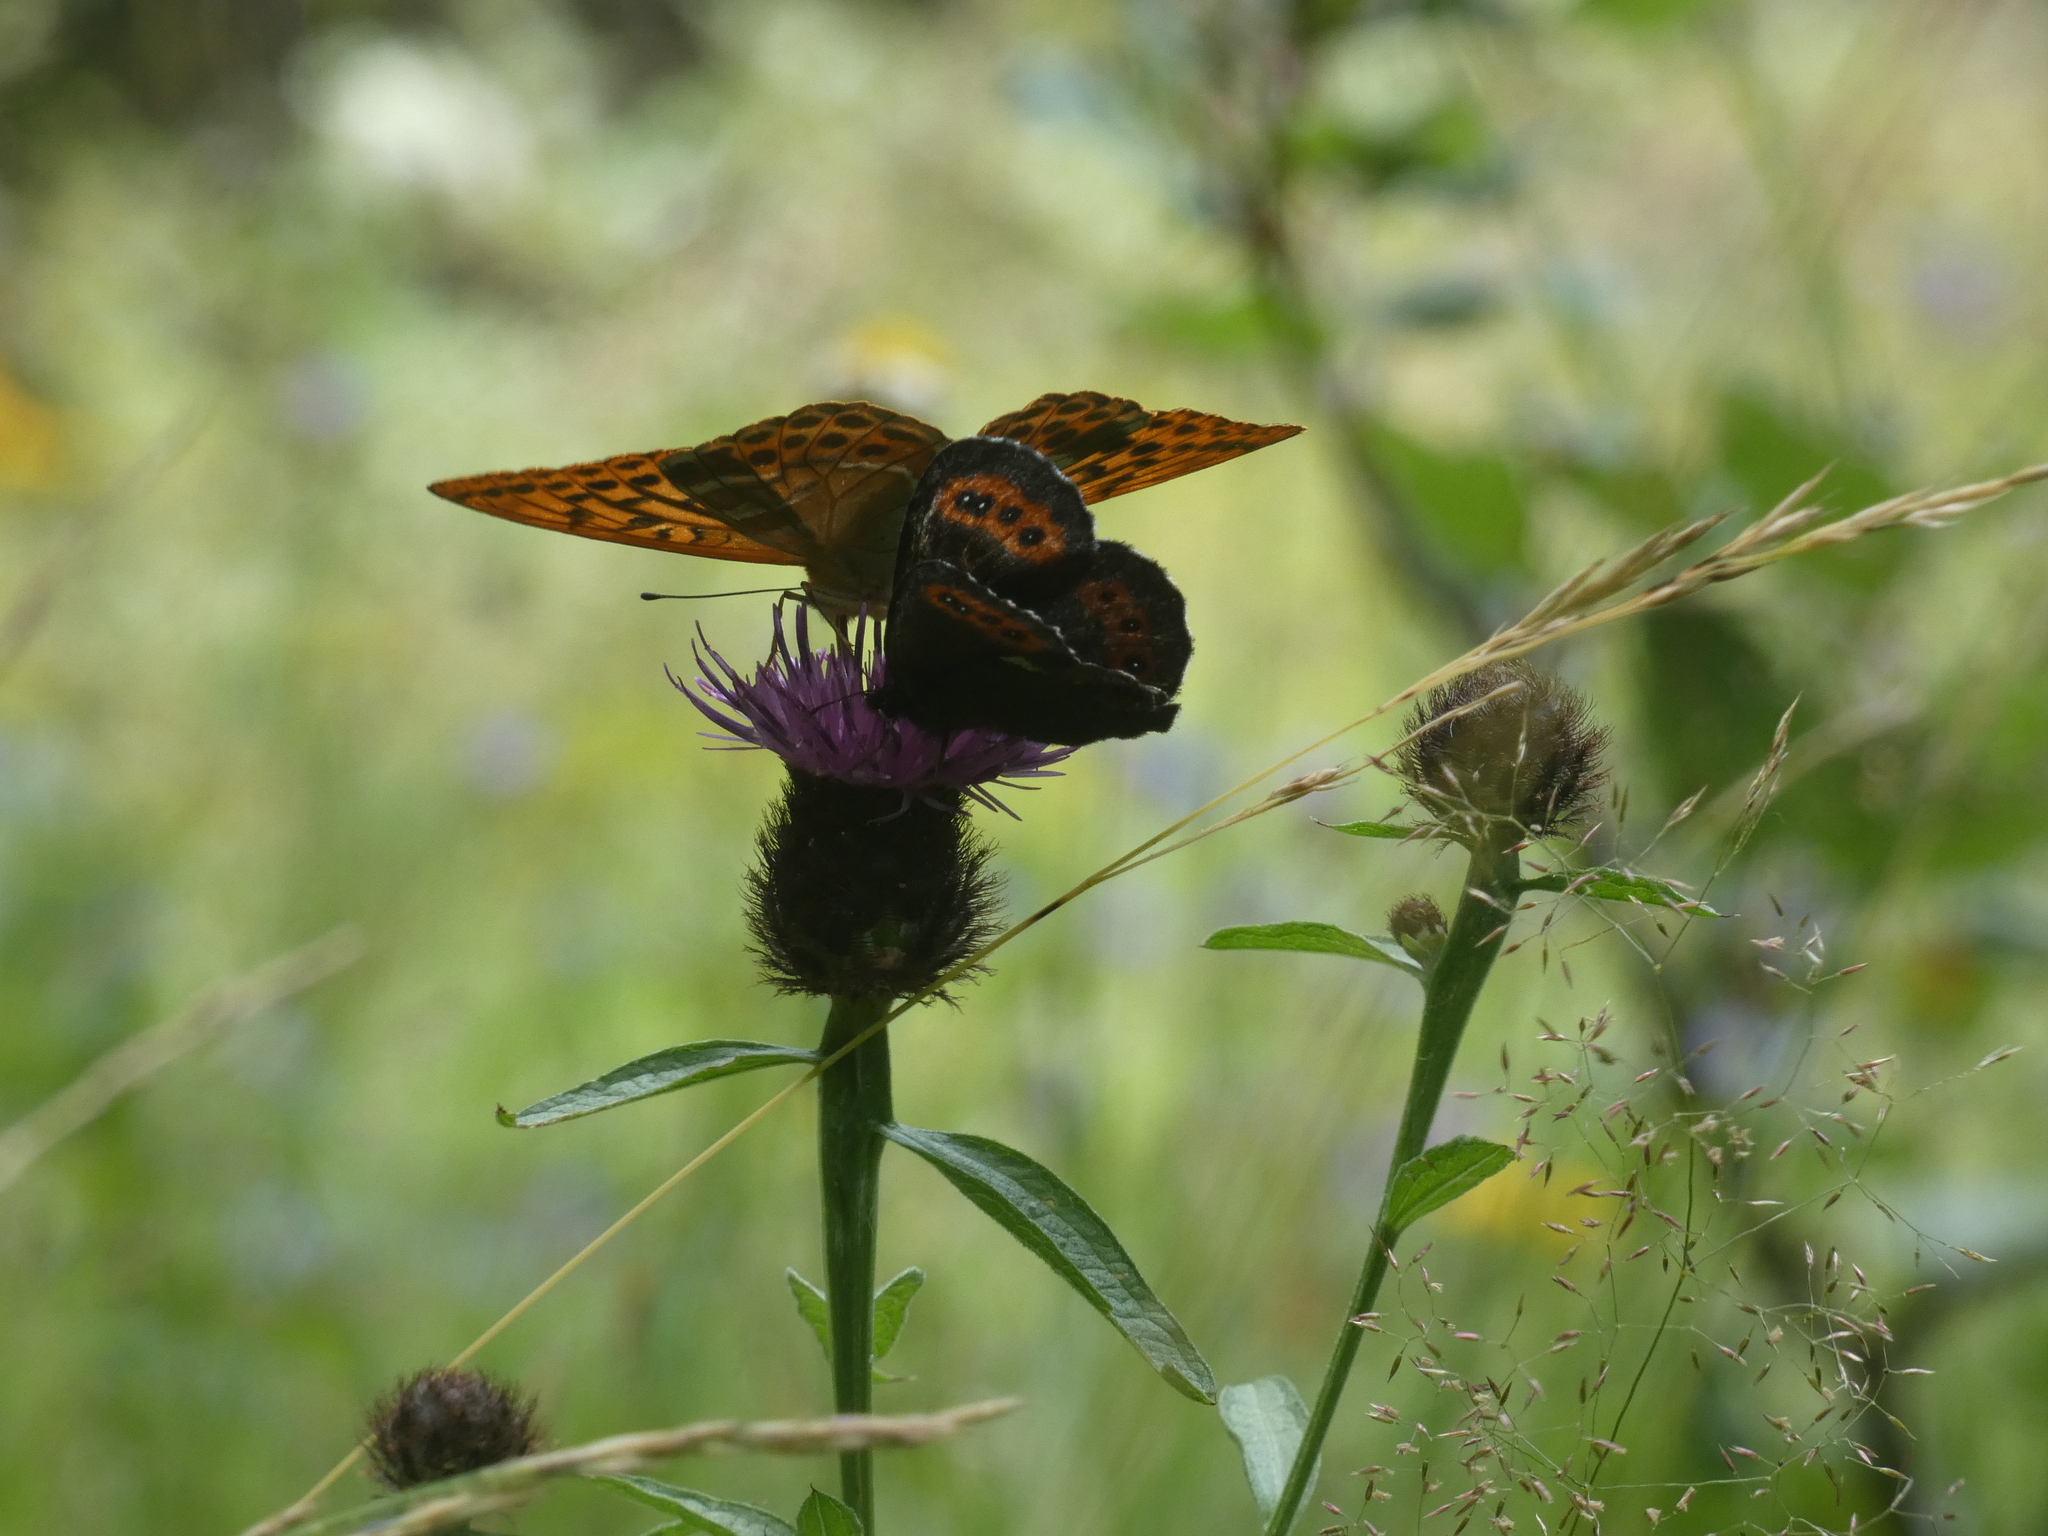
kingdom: Animalia
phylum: Arthropoda
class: Insecta
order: Lepidoptera
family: Nymphalidae
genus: Argynnis
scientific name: Argynnis paphia
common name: Silver-washed fritillary
